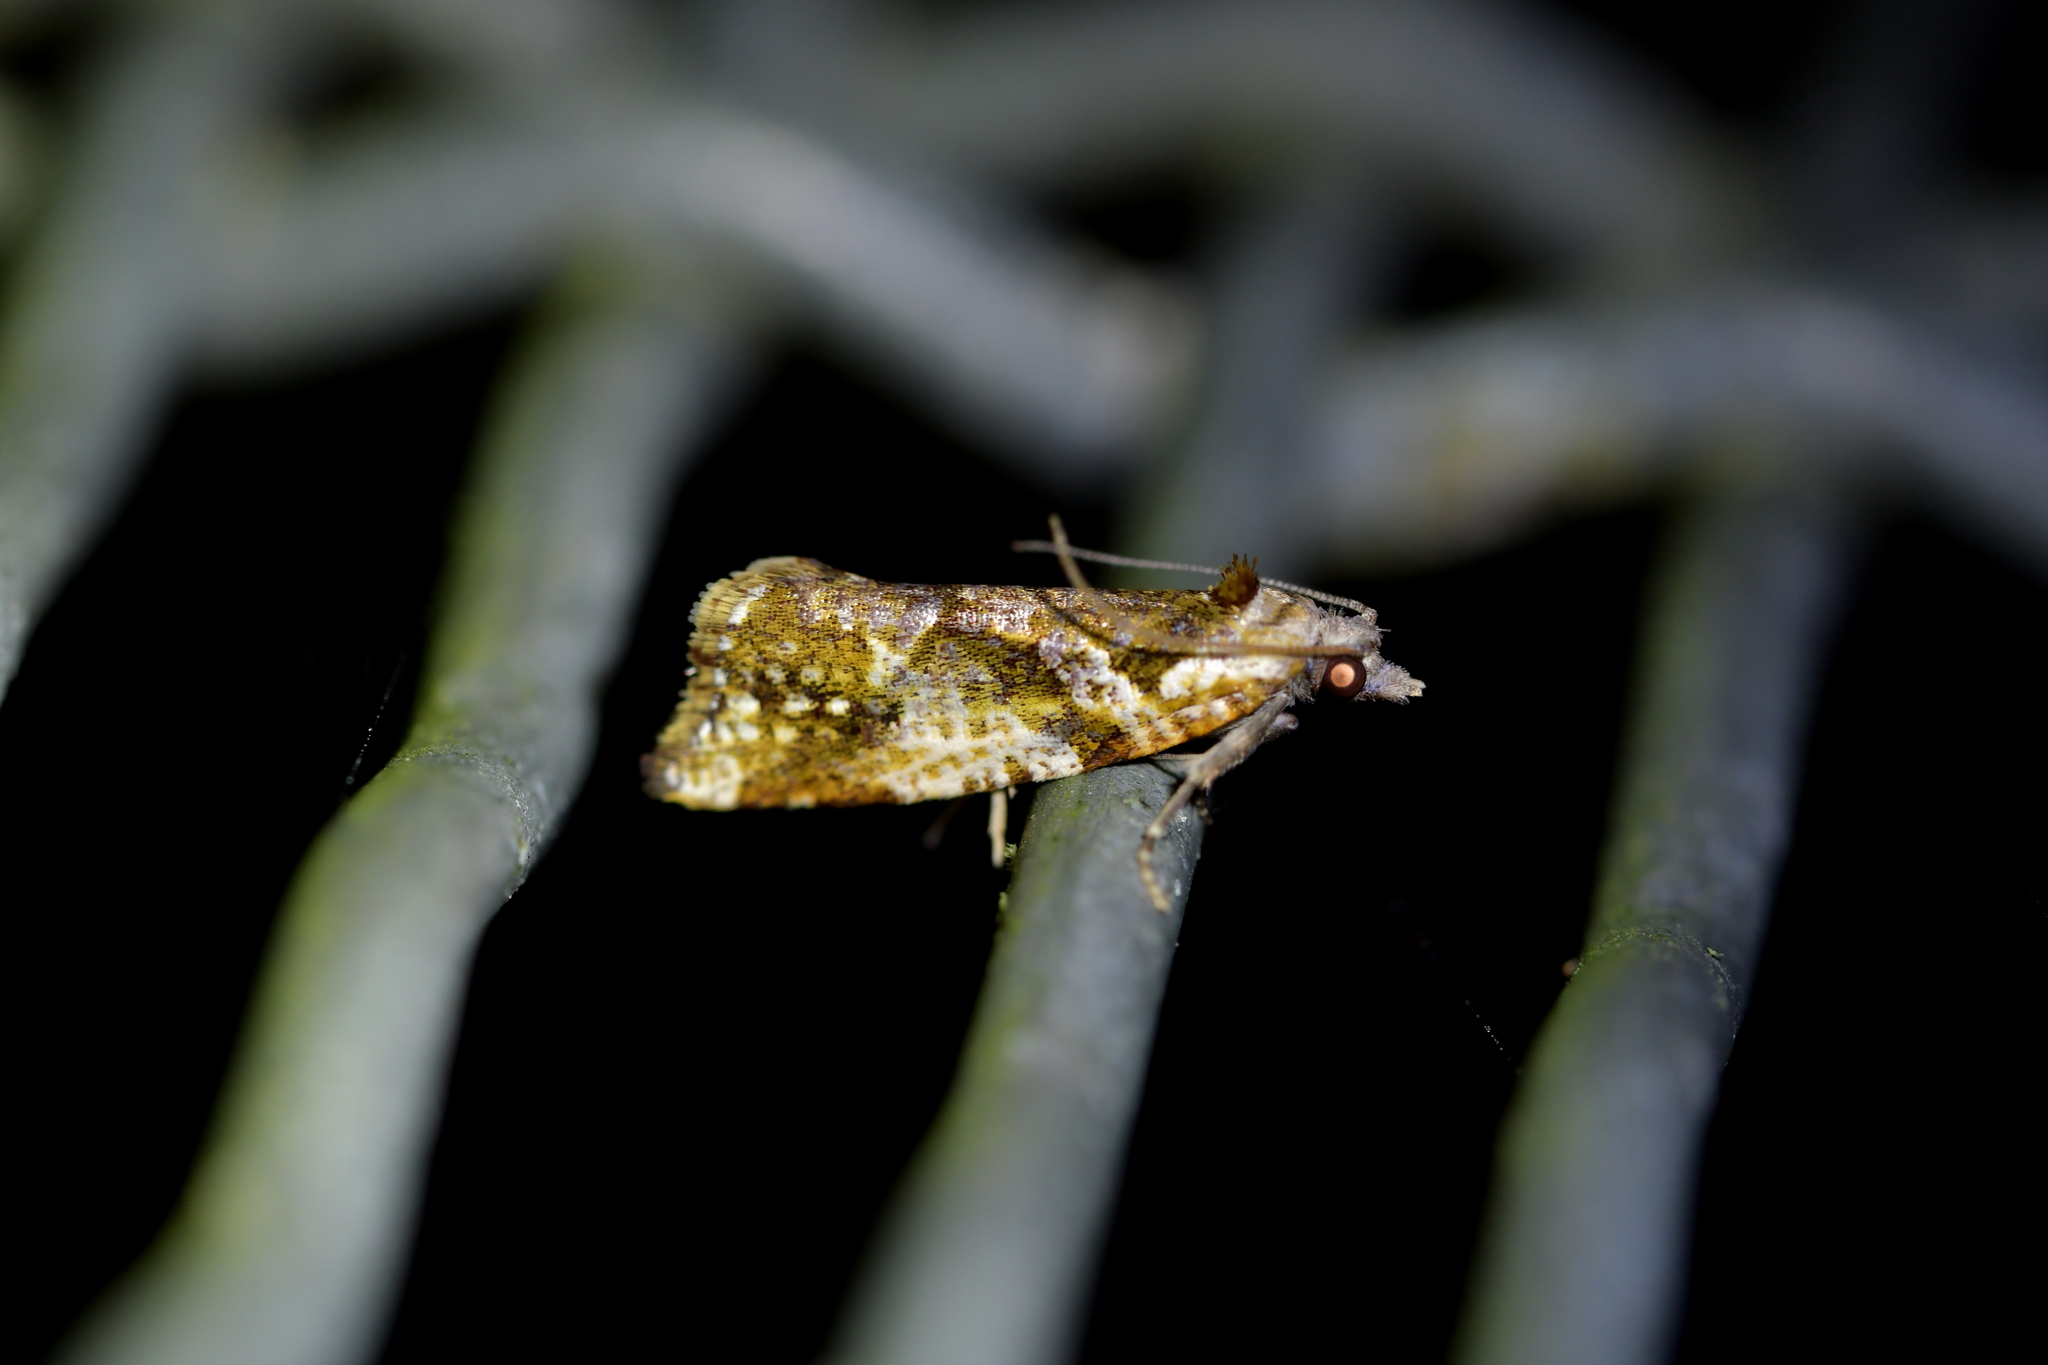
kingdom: Animalia
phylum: Arthropoda
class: Insecta
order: Lepidoptera
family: Tortricidae
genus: Pyrgotis
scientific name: Pyrgotis plagiatana
